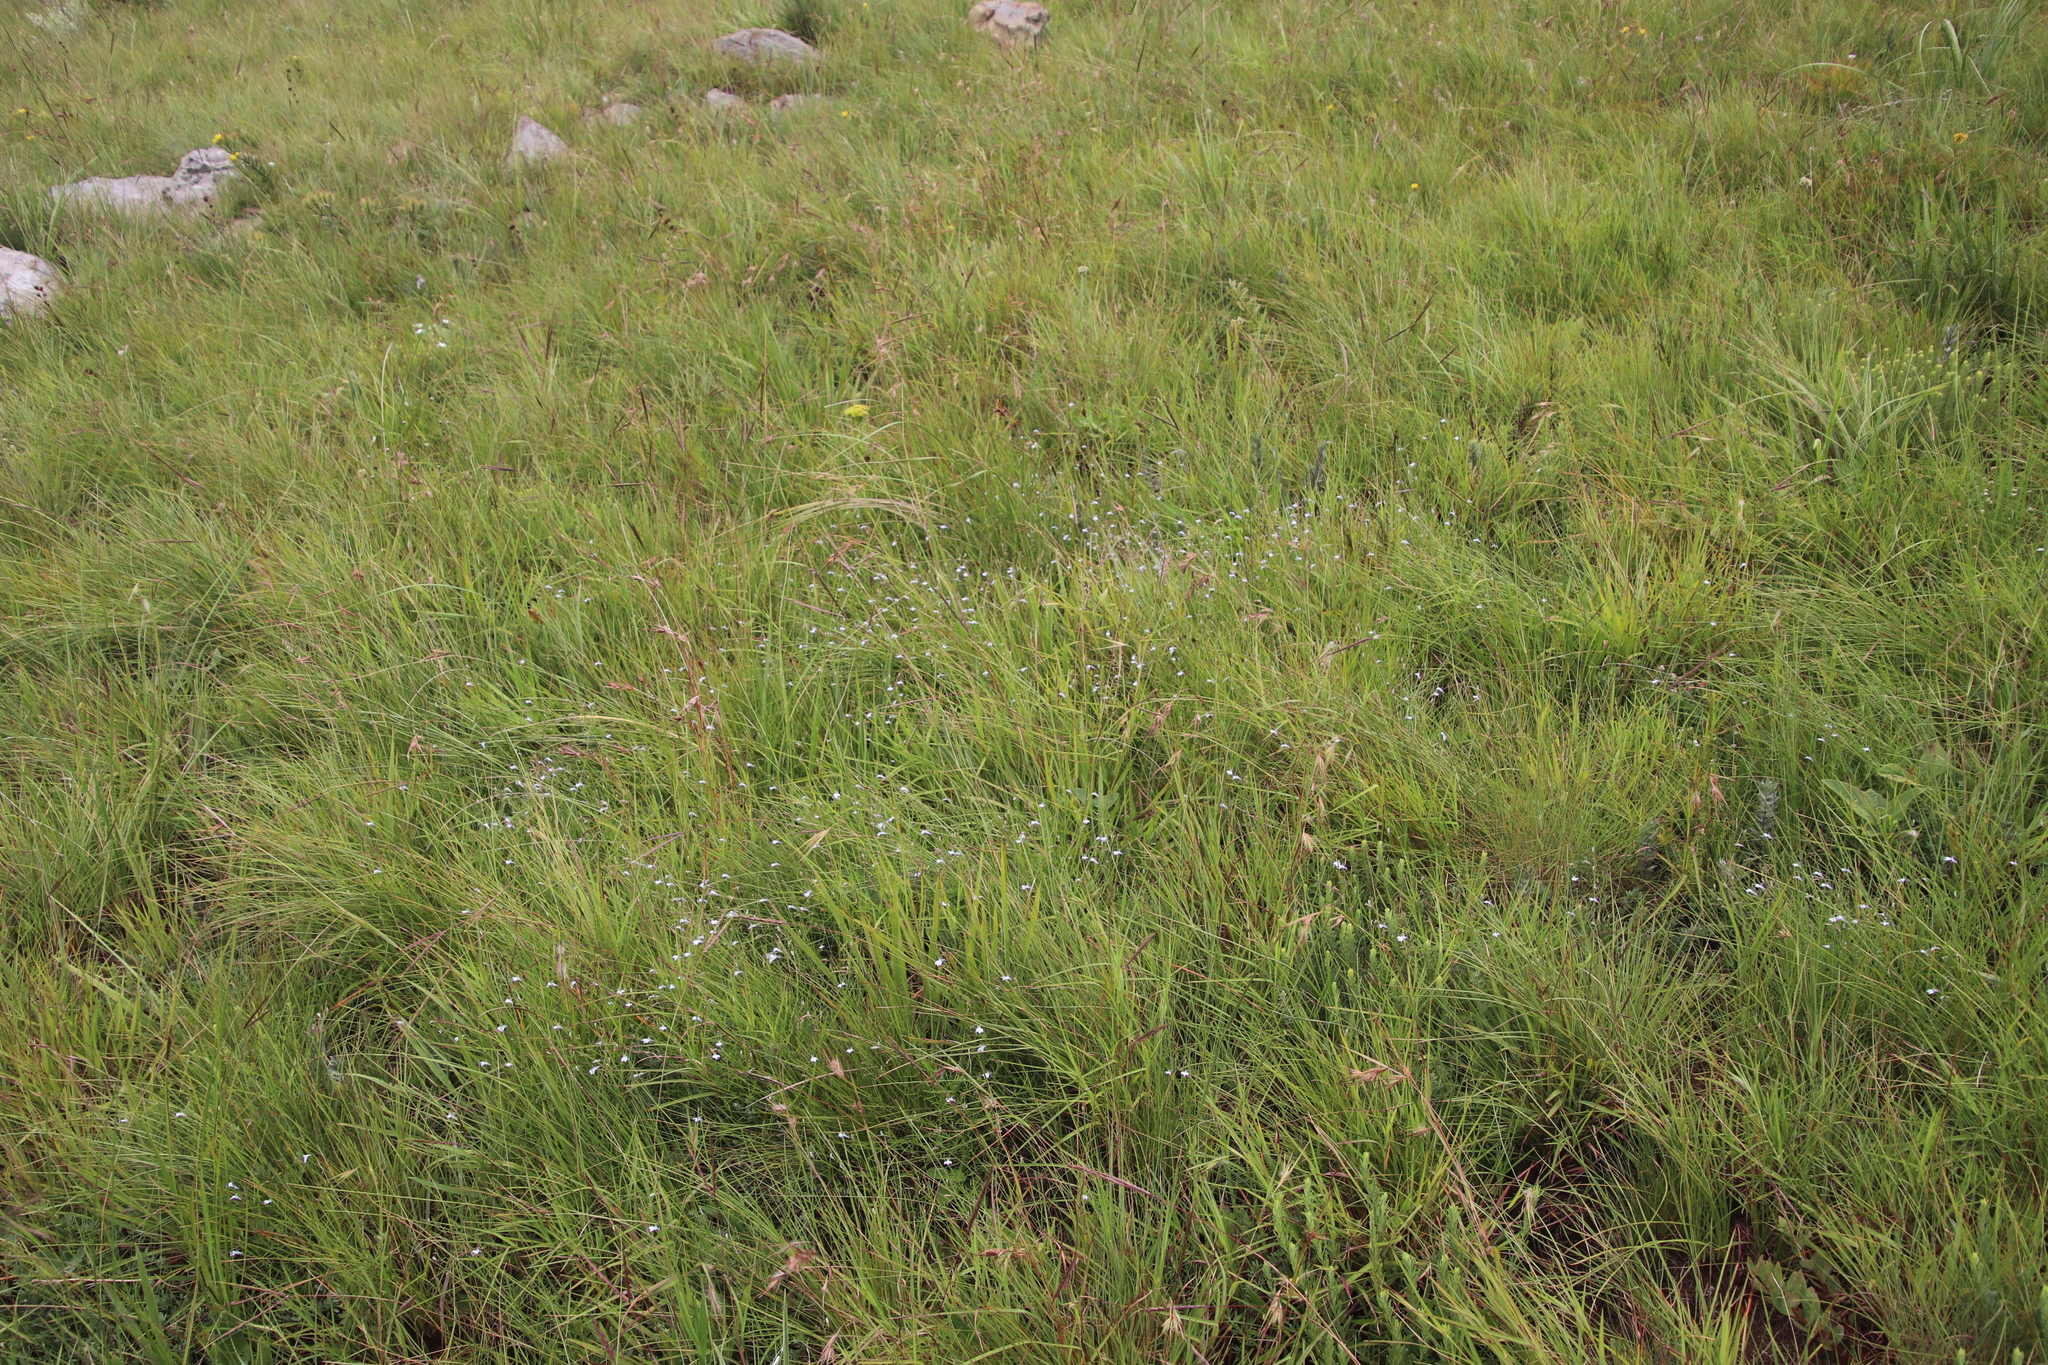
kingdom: Plantae
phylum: Tracheophyta
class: Magnoliopsida
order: Asterales
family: Campanulaceae
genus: Lobelia
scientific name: Lobelia flaccida
